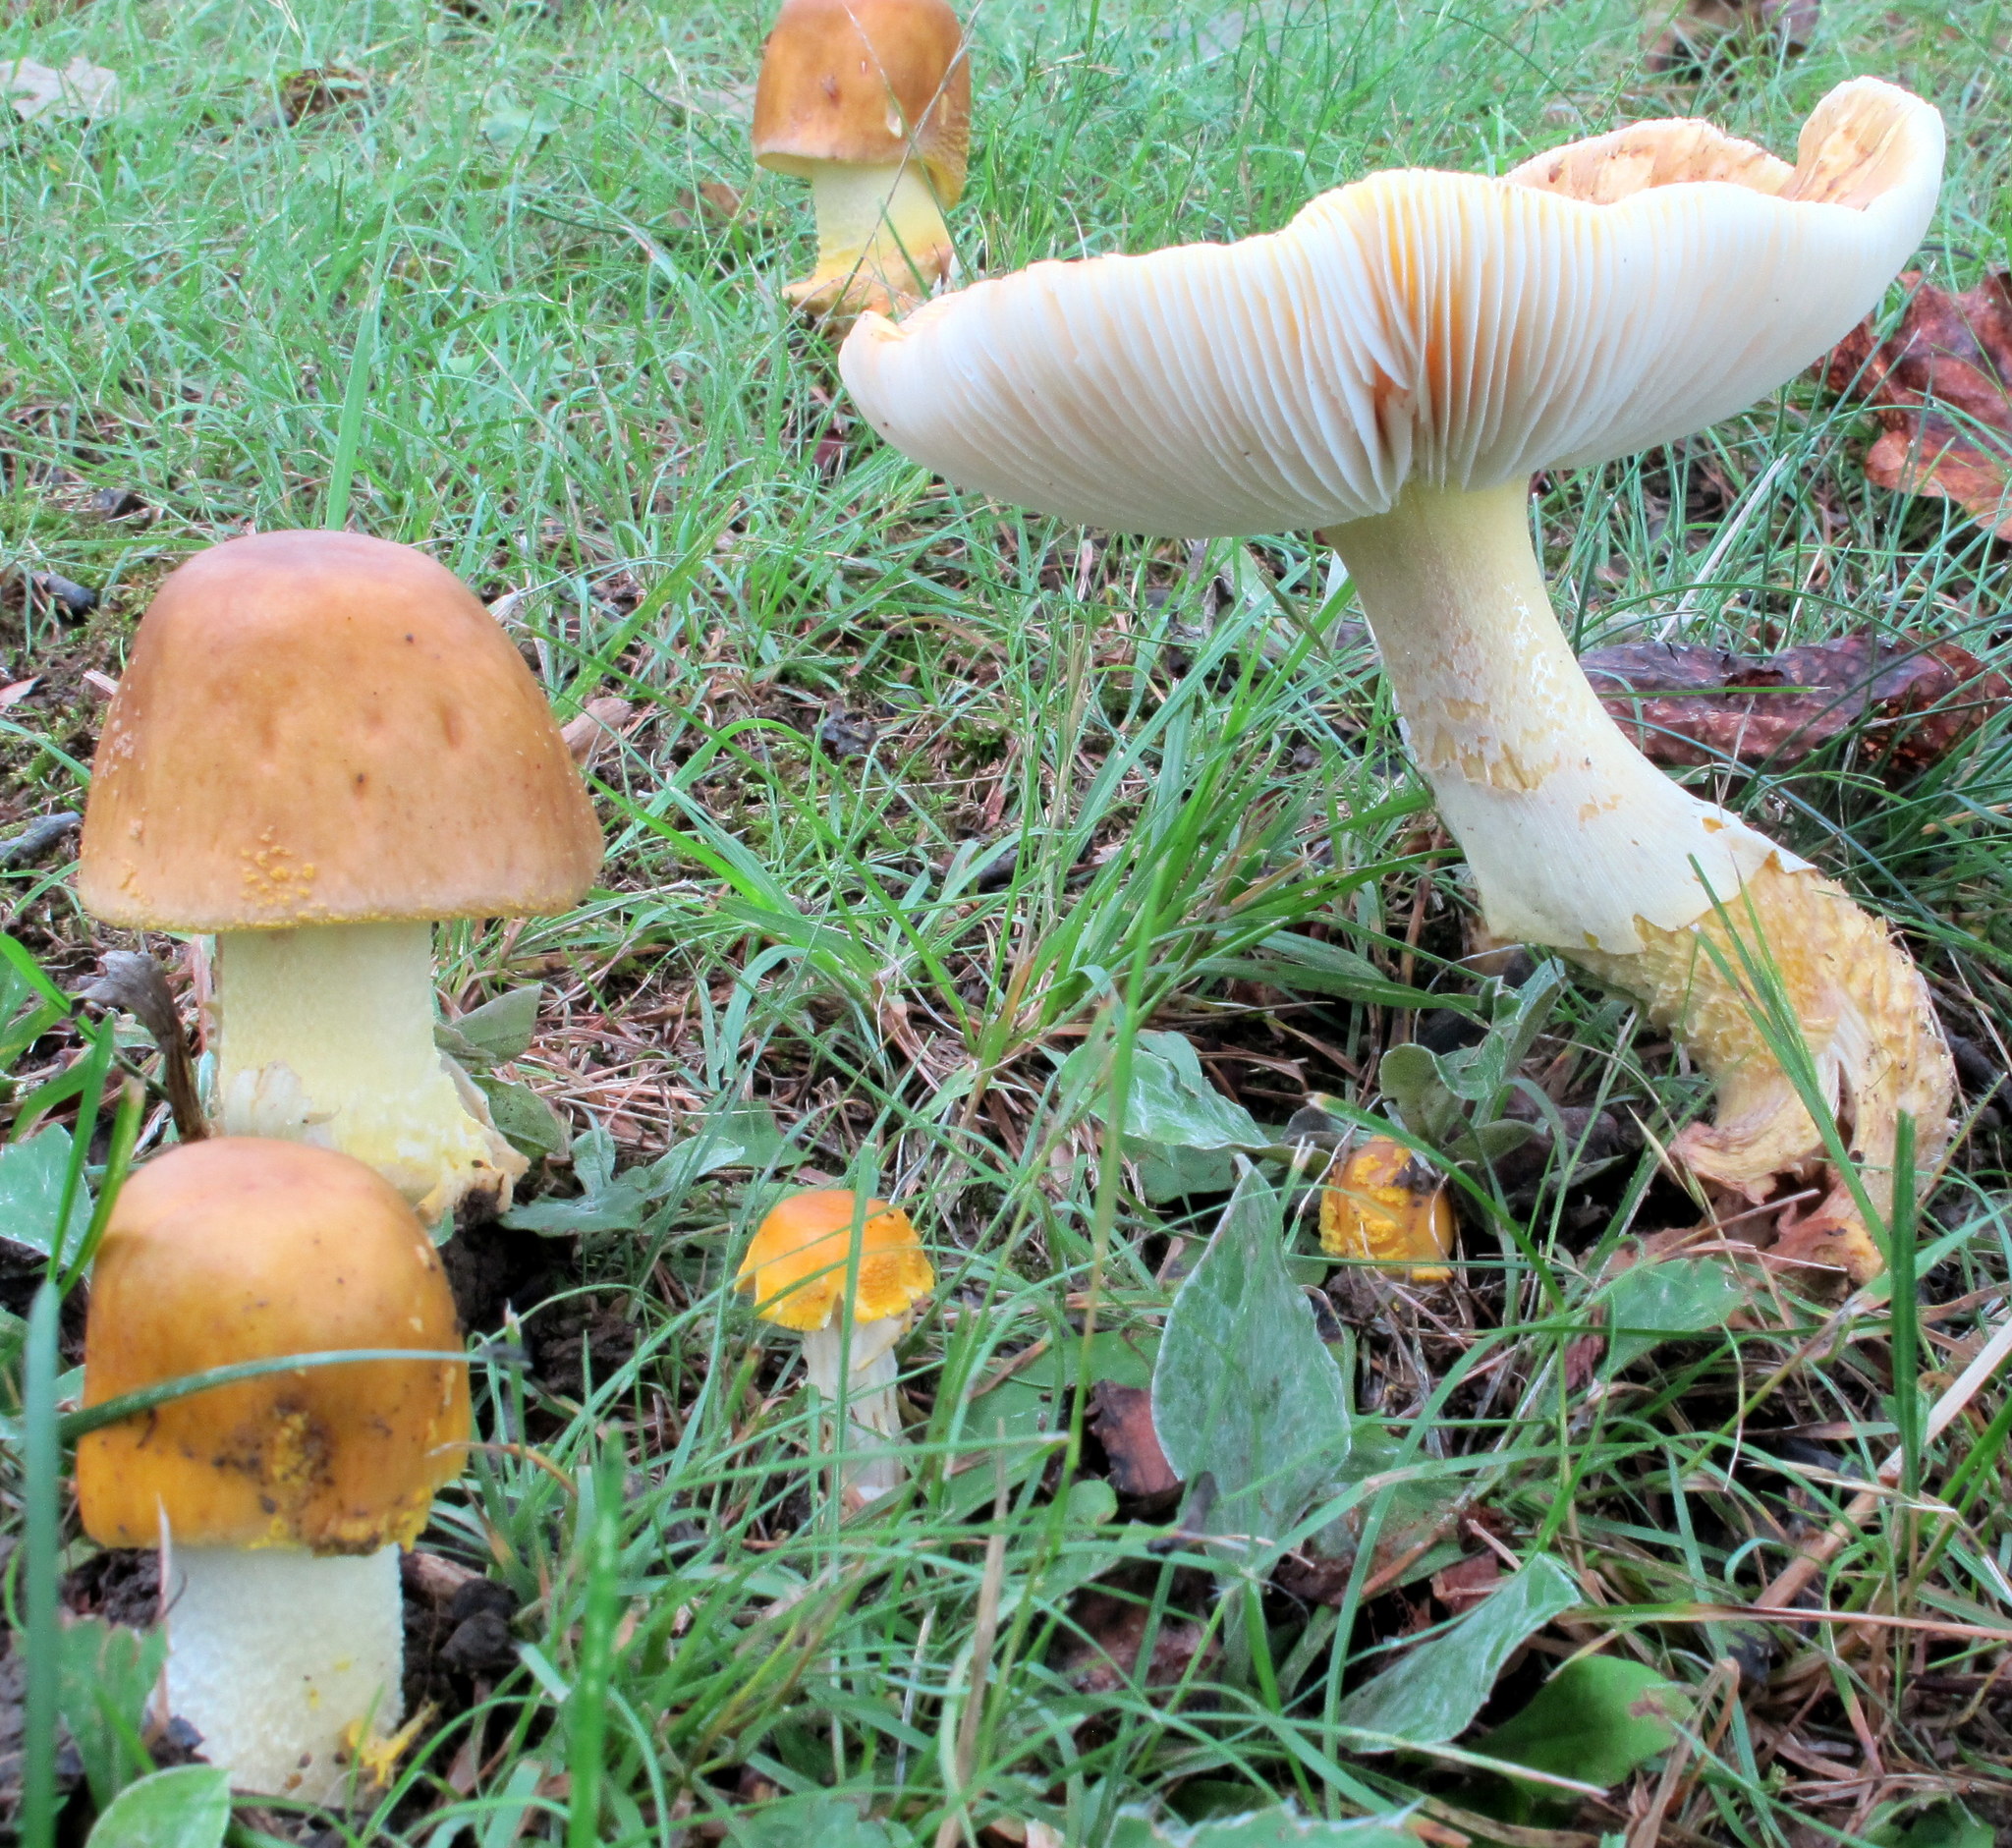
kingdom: Fungi
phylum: Basidiomycota
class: Agaricomycetes
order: Agaricales
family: Amanitaceae
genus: Amanita
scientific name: Amanita flavorubens
